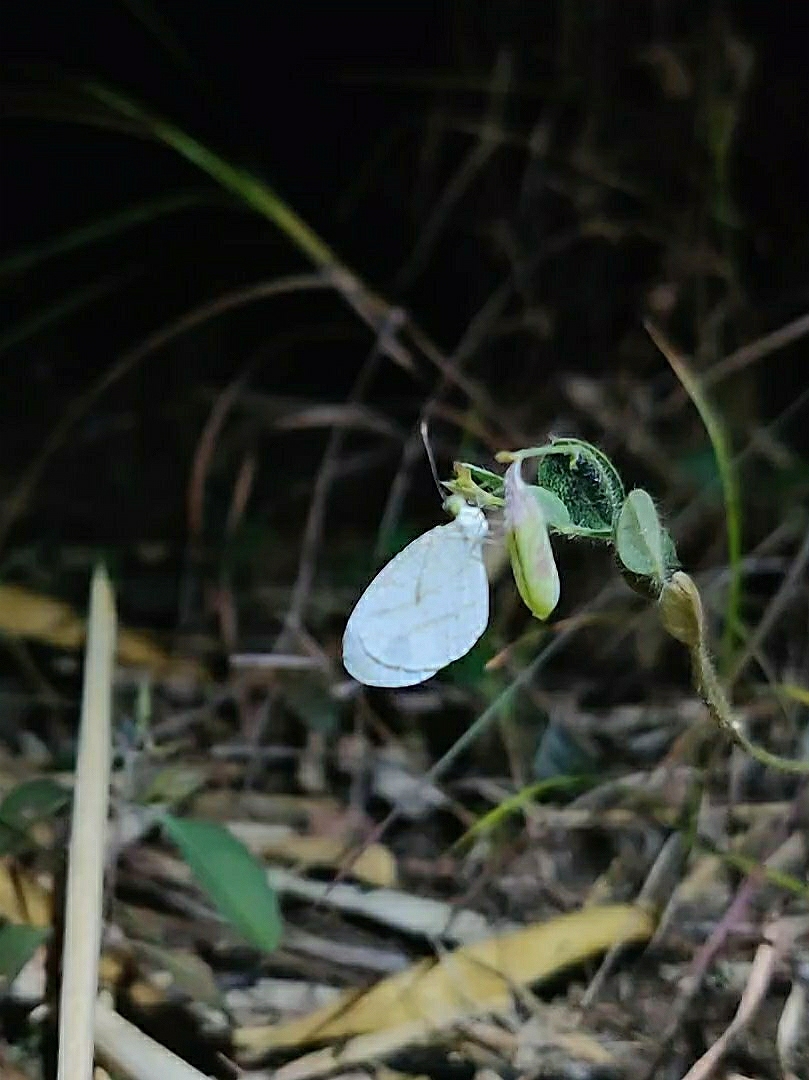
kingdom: Animalia
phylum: Arthropoda
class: Insecta
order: Lepidoptera
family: Pieridae
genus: Leptosia
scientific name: Leptosia nina
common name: Psyche
